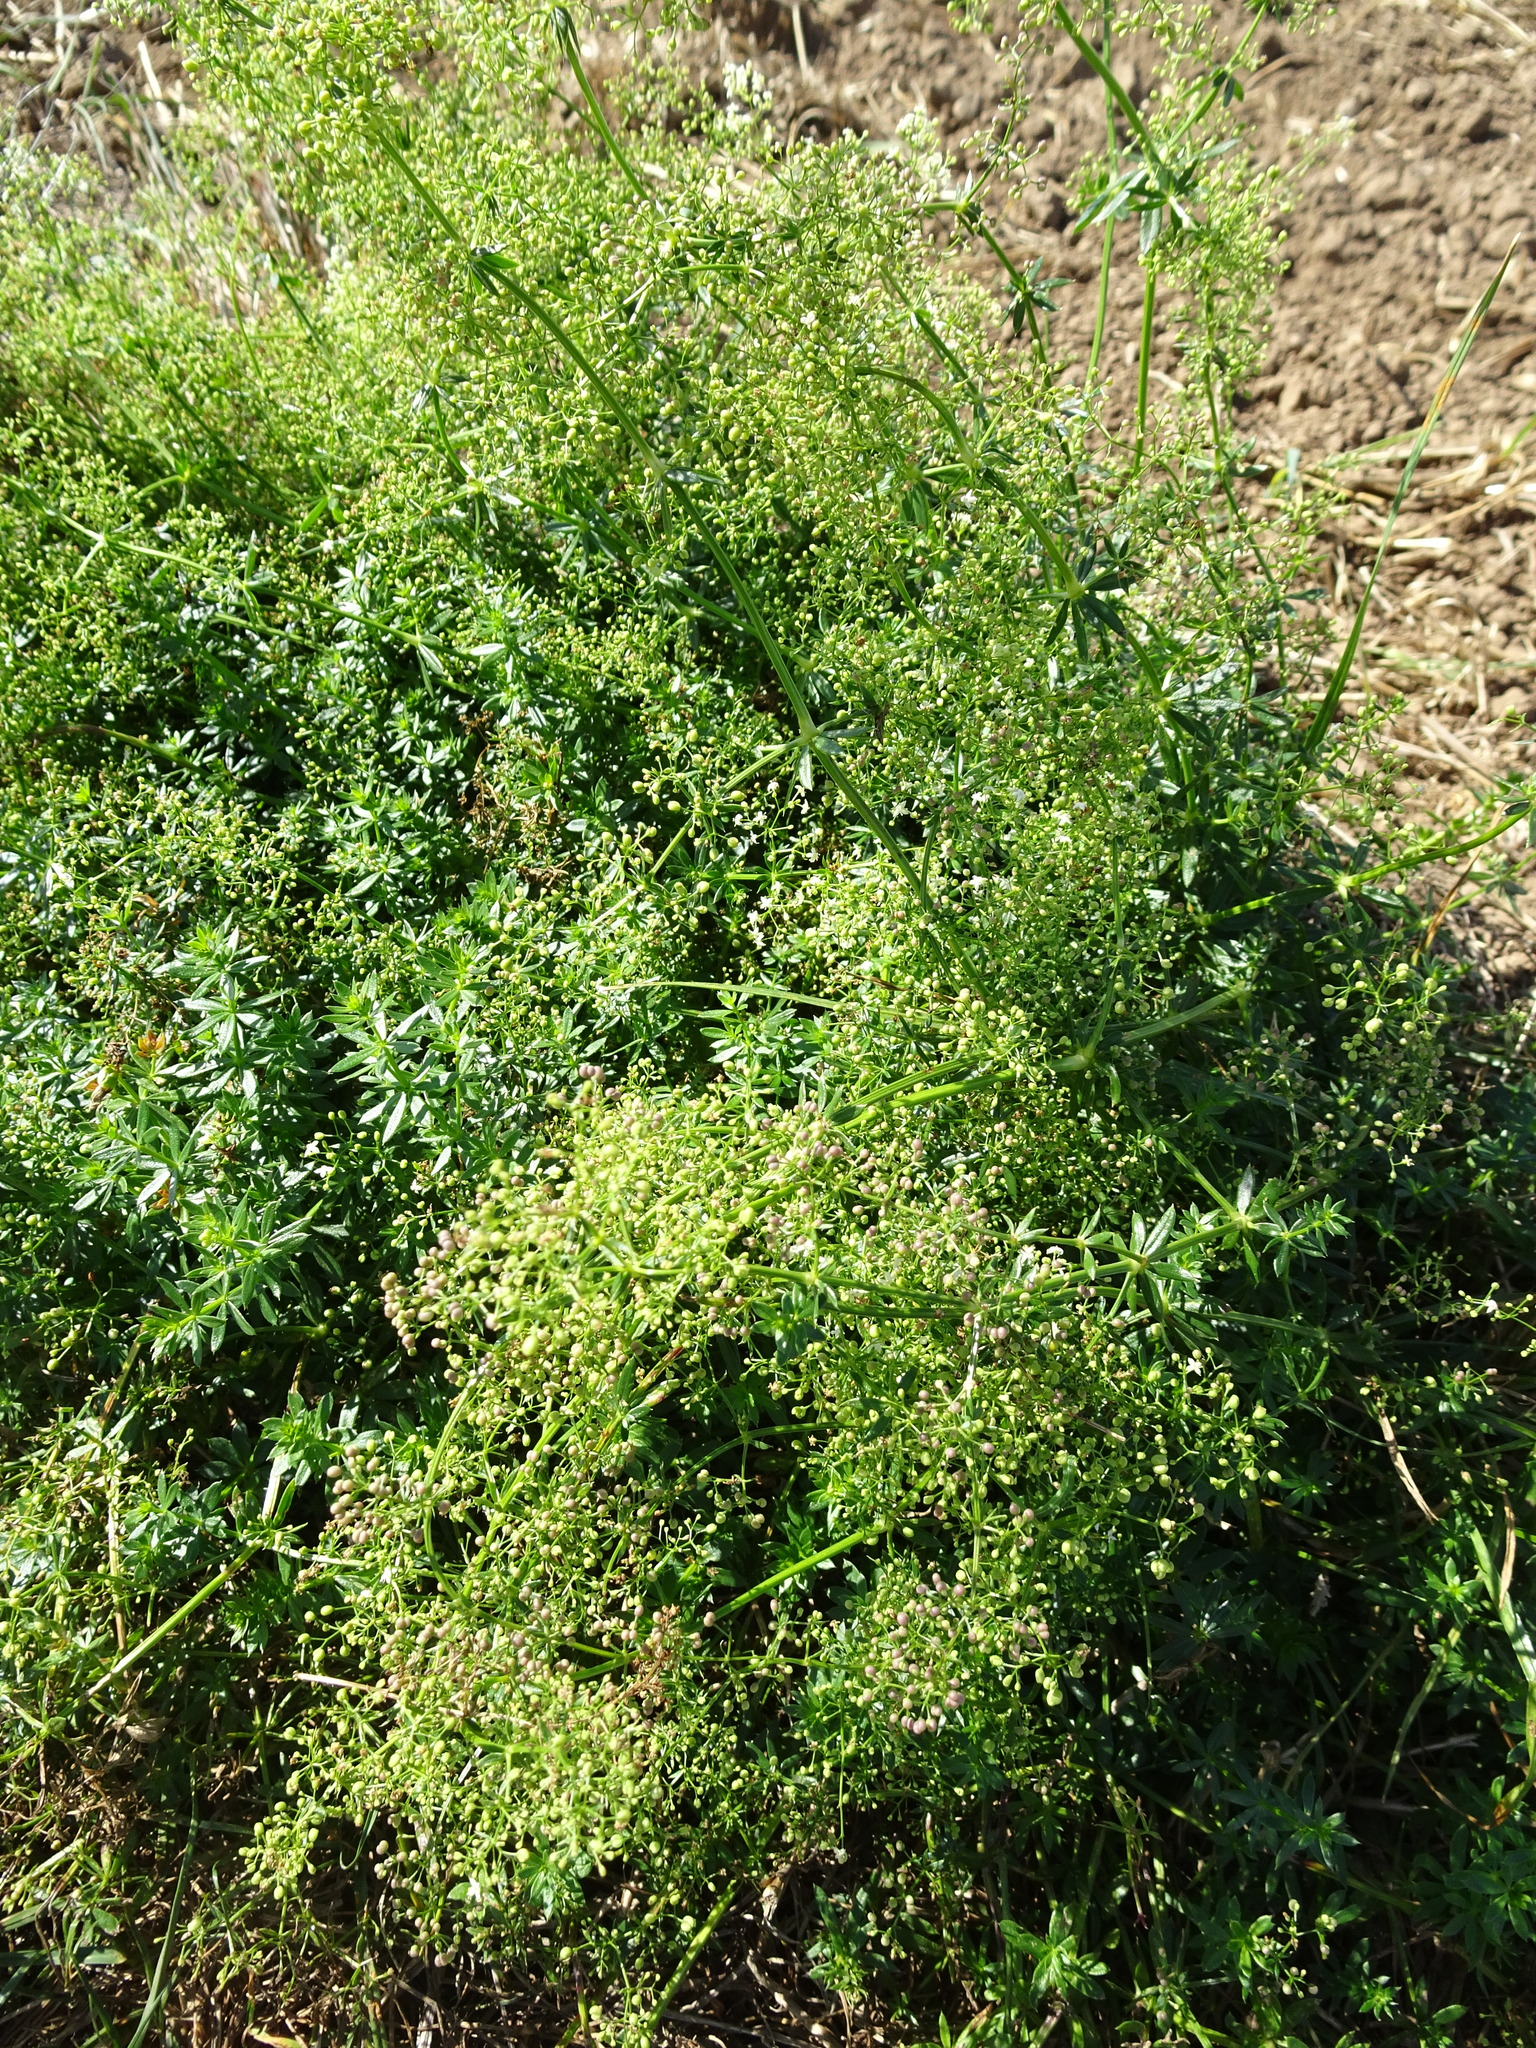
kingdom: Plantae
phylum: Tracheophyta
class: Magnoliopsida
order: Gentianales
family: Rubiaceae
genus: Galium
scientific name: Galium mollugo
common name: Hedge bedstraw
